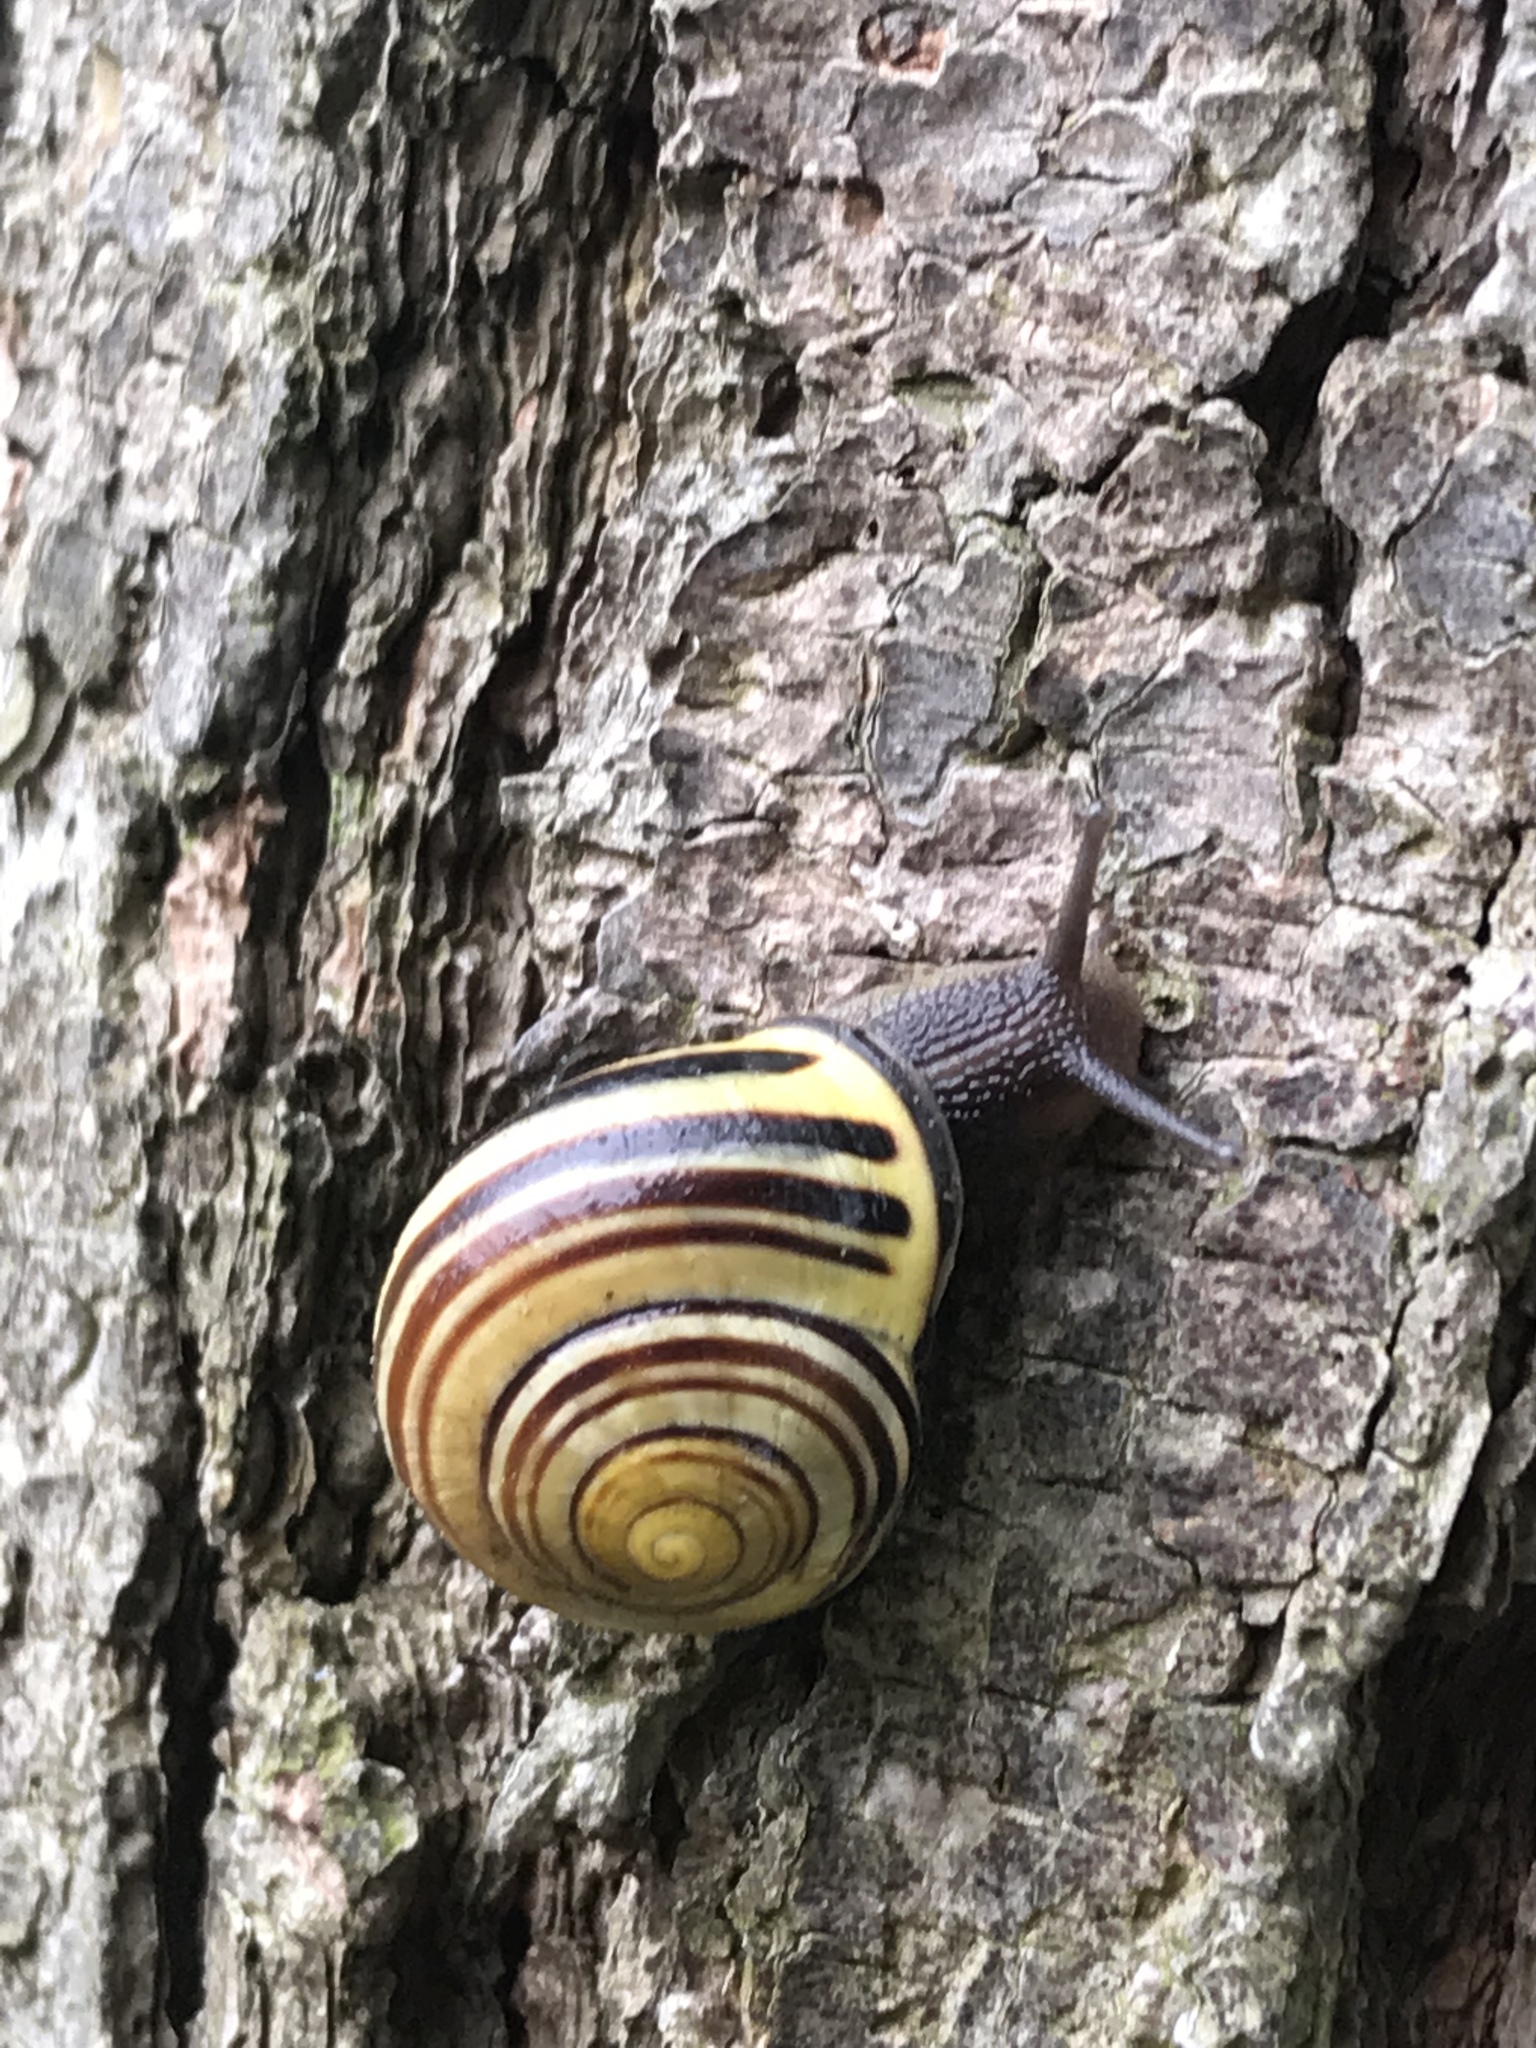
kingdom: Animalia
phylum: Mollusca
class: Gastropoda
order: Stylommatophora
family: Helicidae
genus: Cepaea
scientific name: Cepaea nemoralis
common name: Grovesnail
